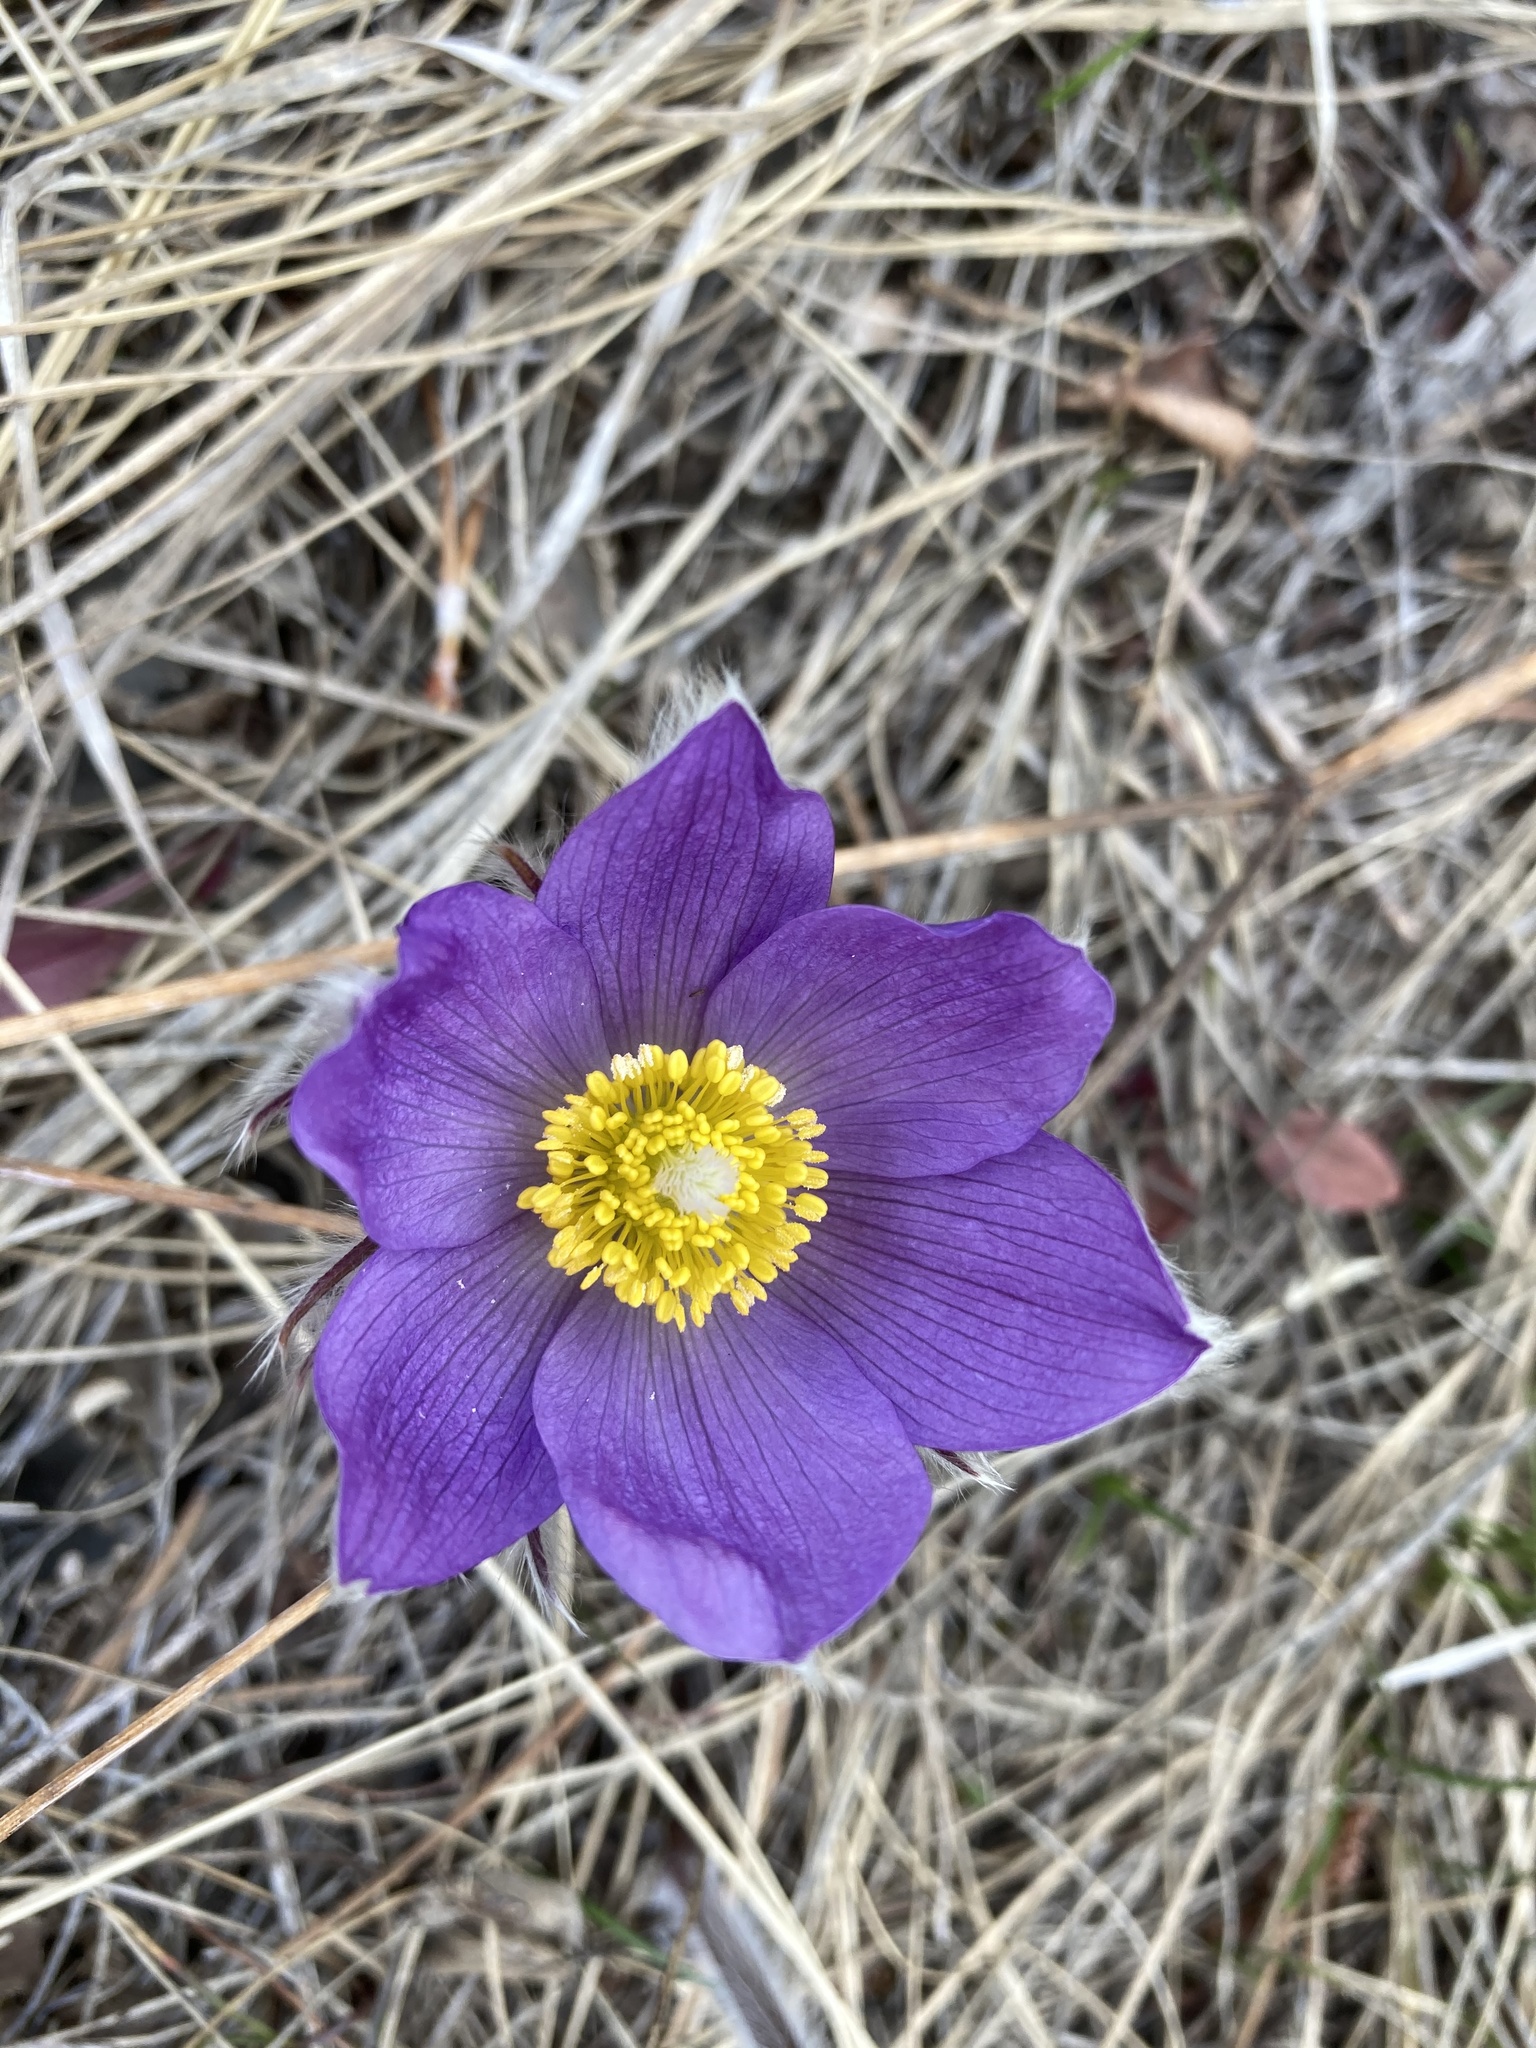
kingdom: Plantae
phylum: Tracheophyta
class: Magnoliopsida
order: Ranunculales
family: Ranunculaceae
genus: Pulsatilla
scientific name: Pulsatilla nuttalliana
